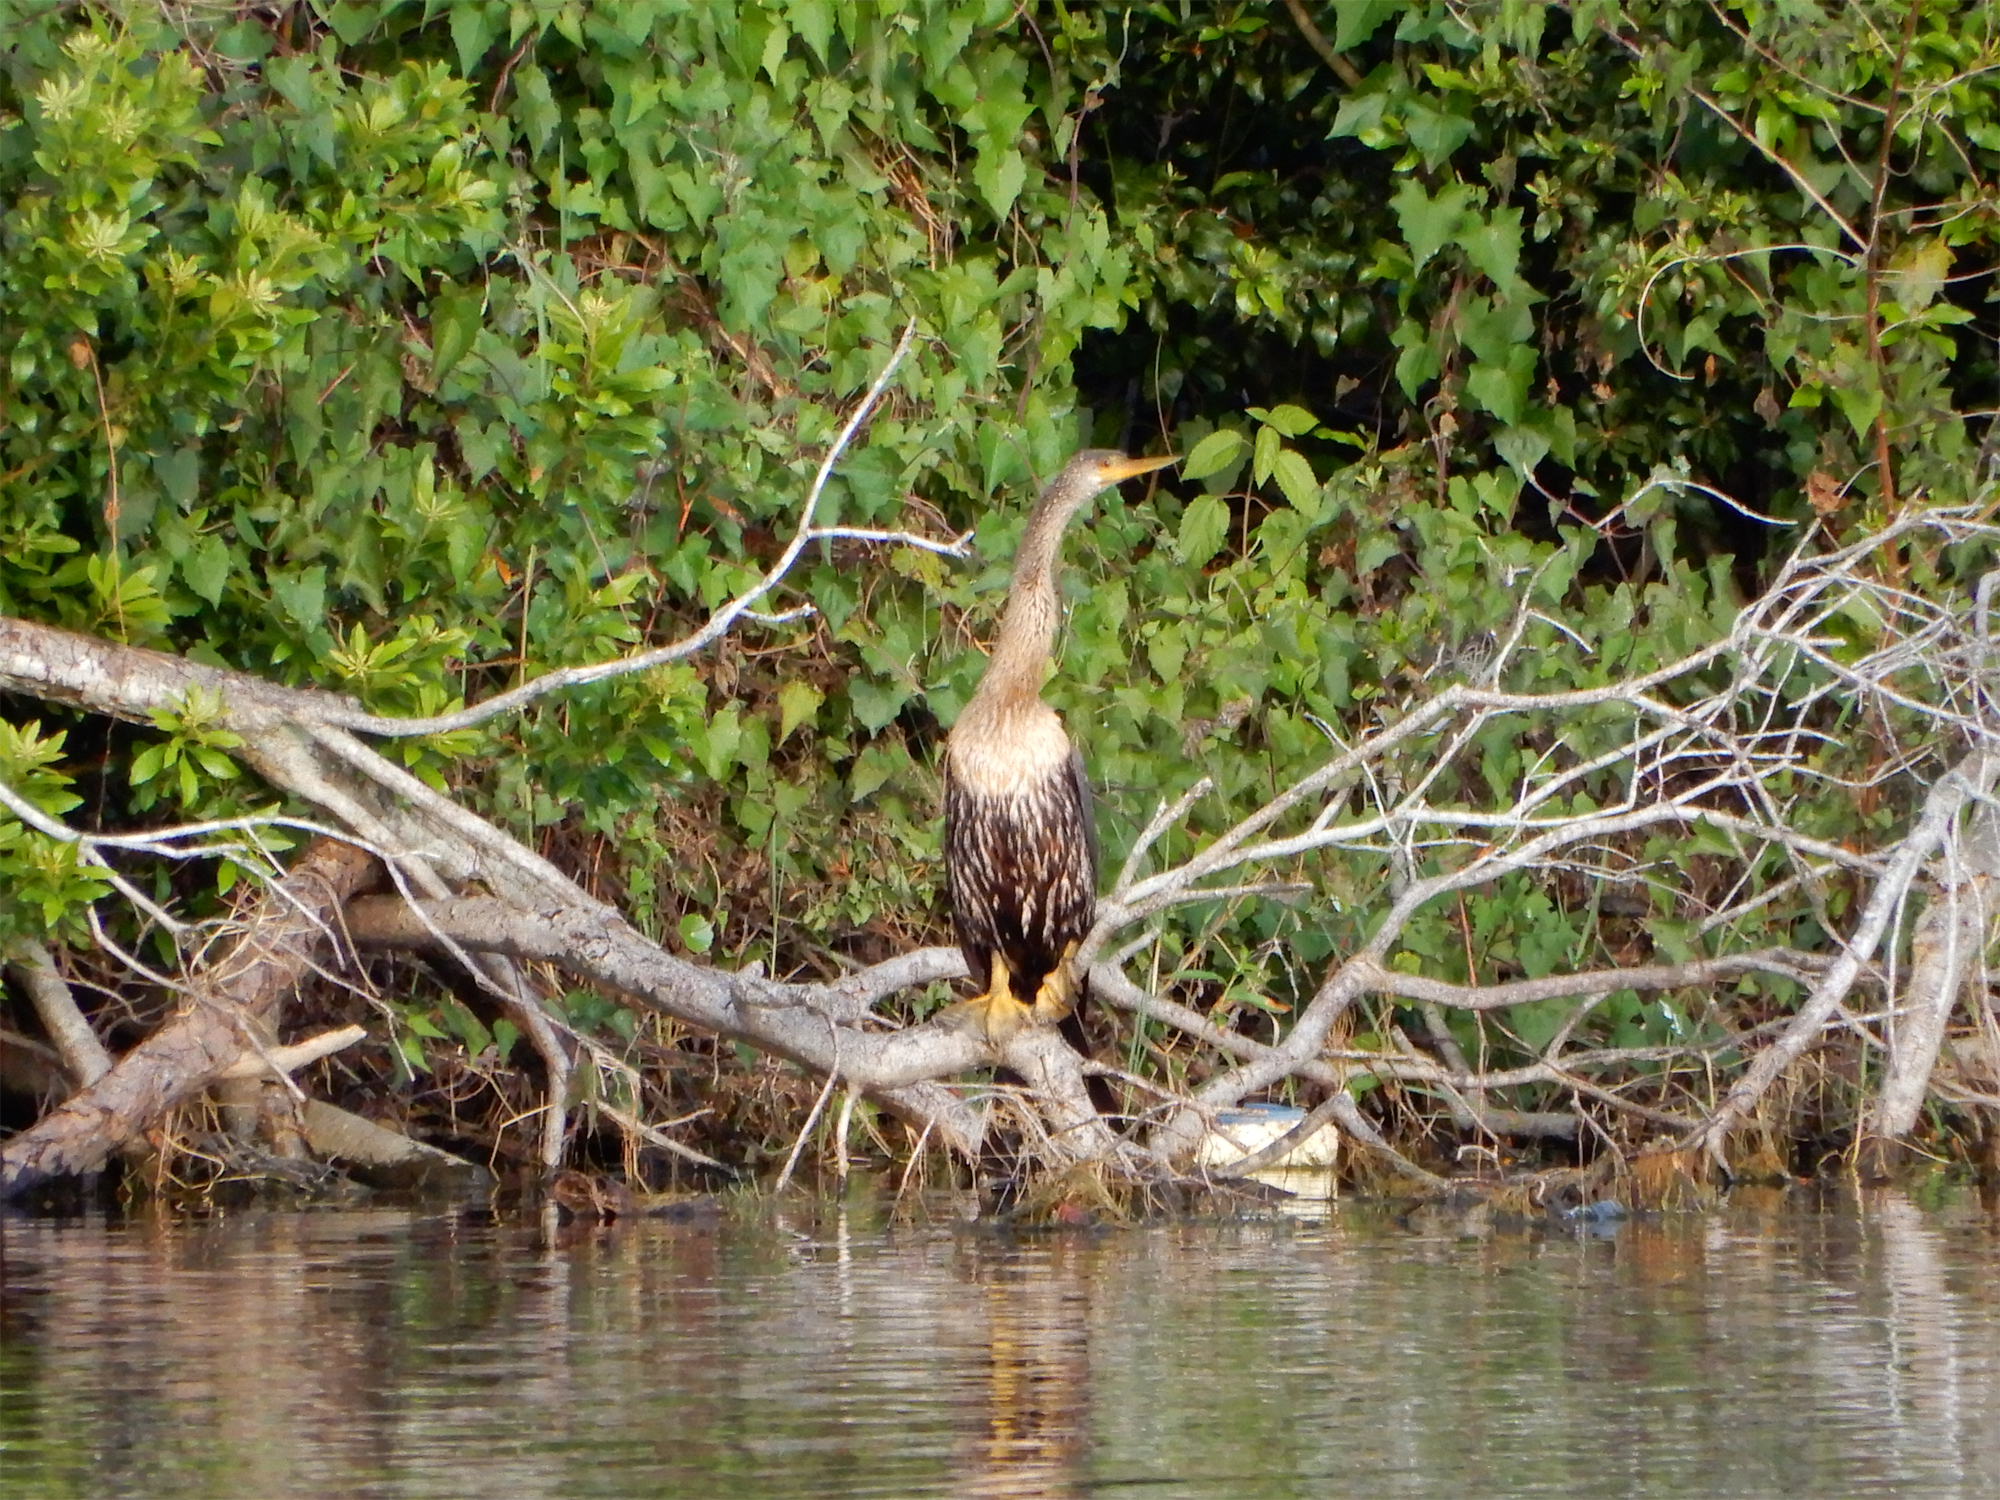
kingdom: Animalia
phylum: Chordata
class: Aves
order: Suliformes
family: Anhingidae
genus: Anhinga
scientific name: Anhinga anhinga
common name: Anhinga
